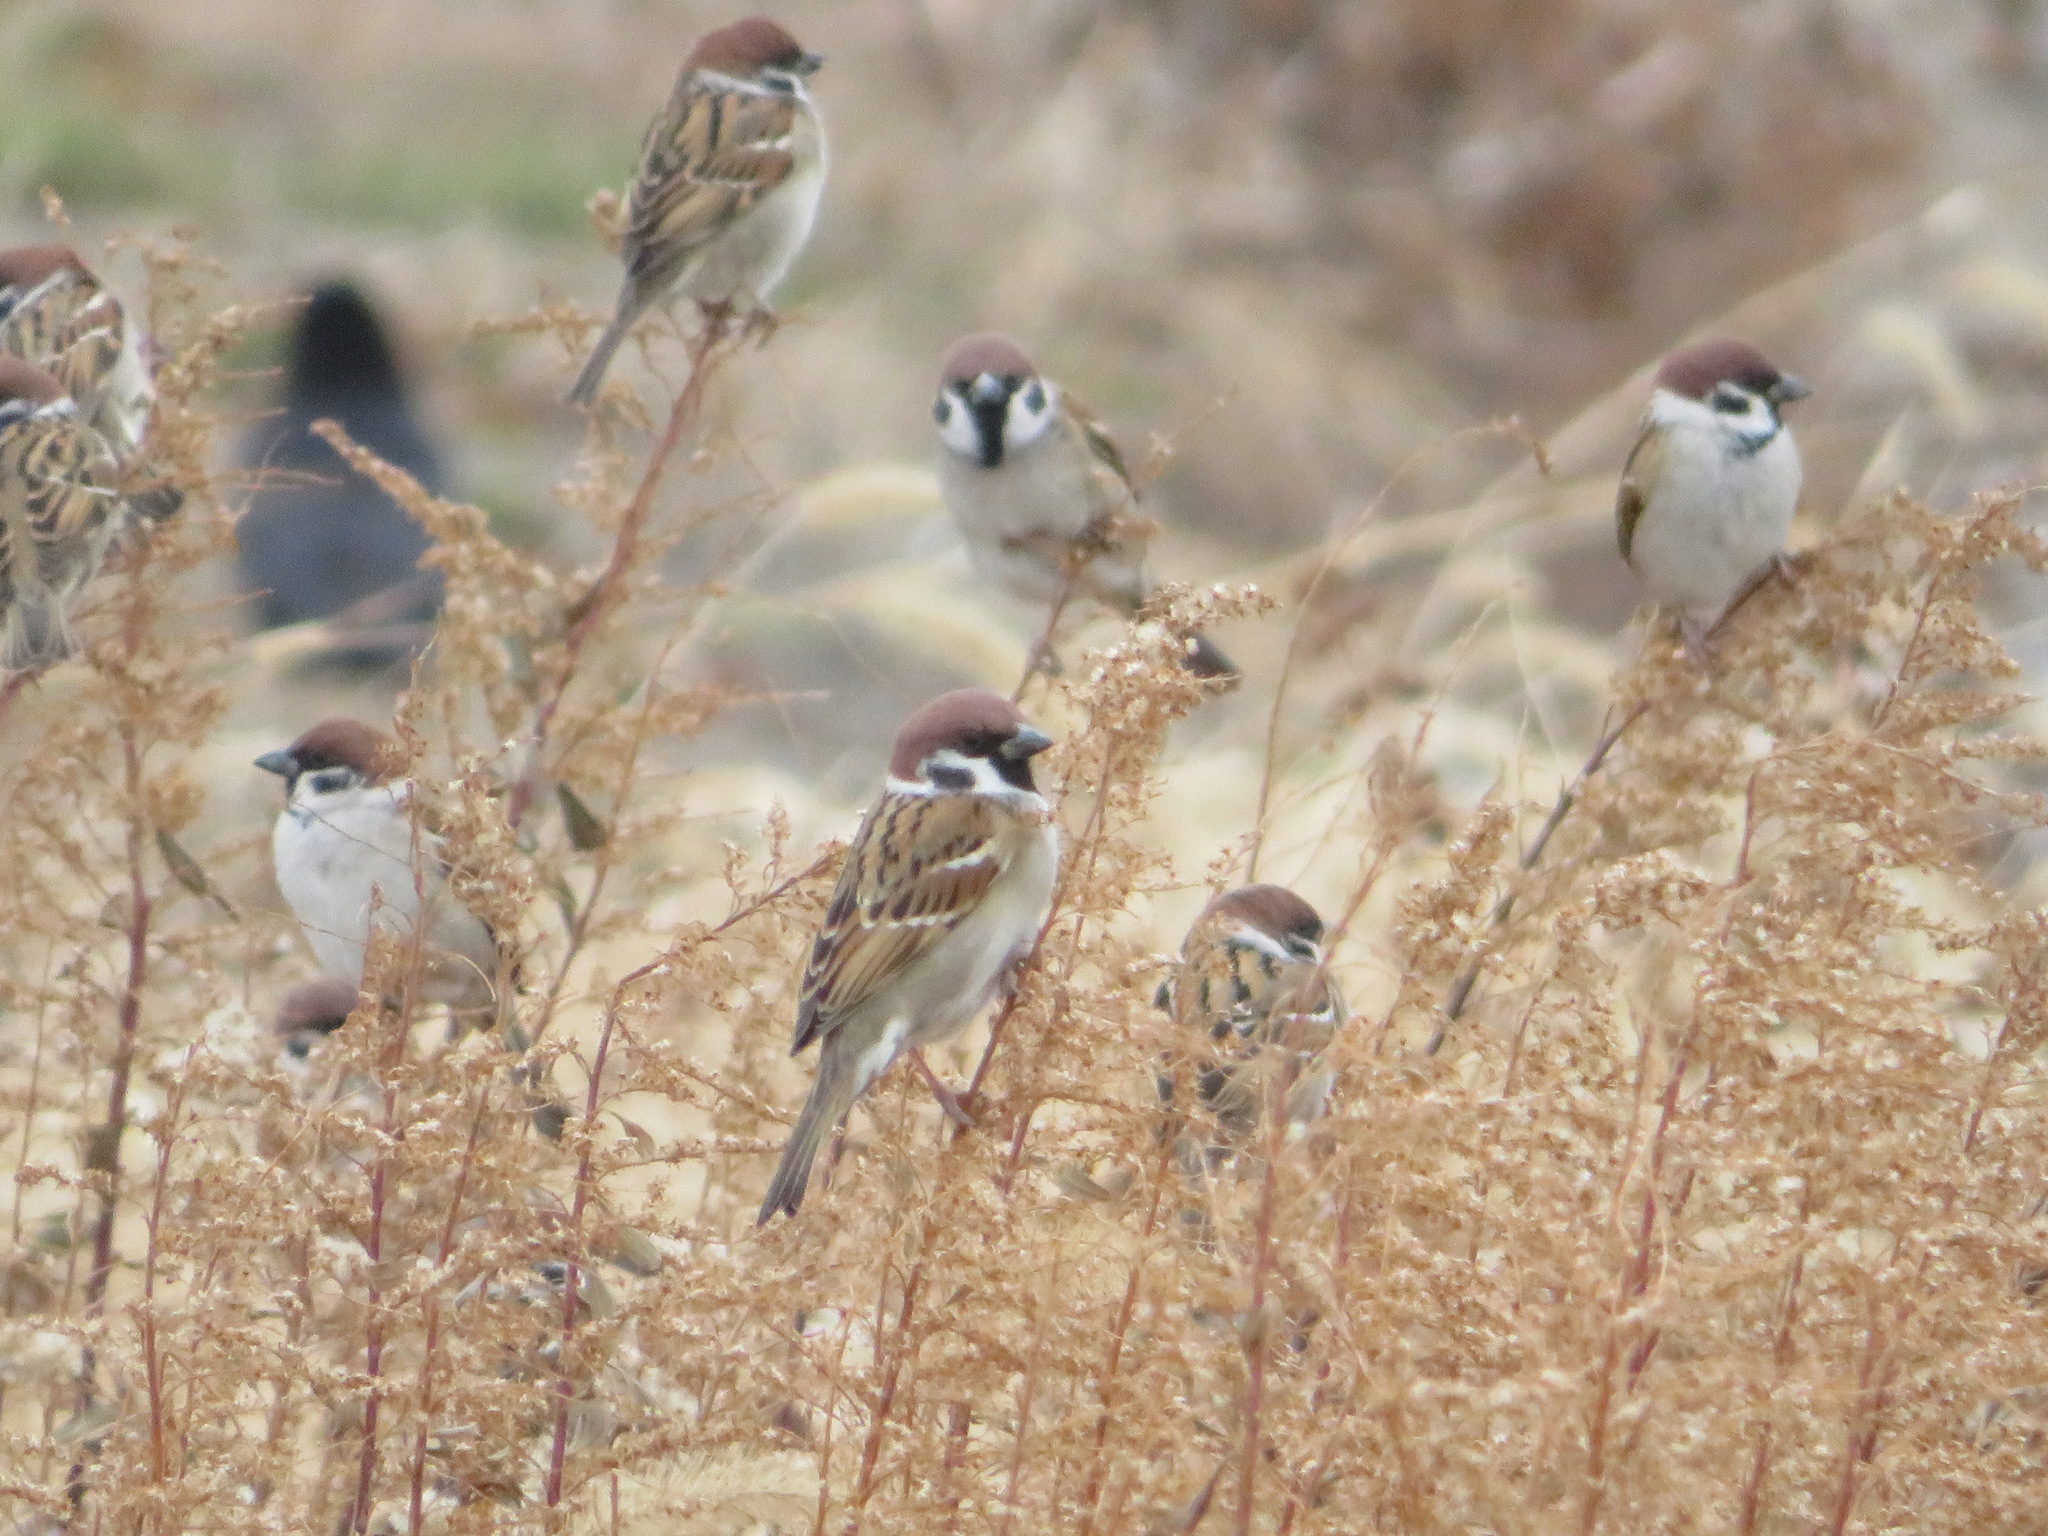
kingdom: Animalia
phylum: Chordata
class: Aves
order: Passeriformes
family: Passeridae
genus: Passer
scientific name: Passer montanus
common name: Eurasian tree sparrow
